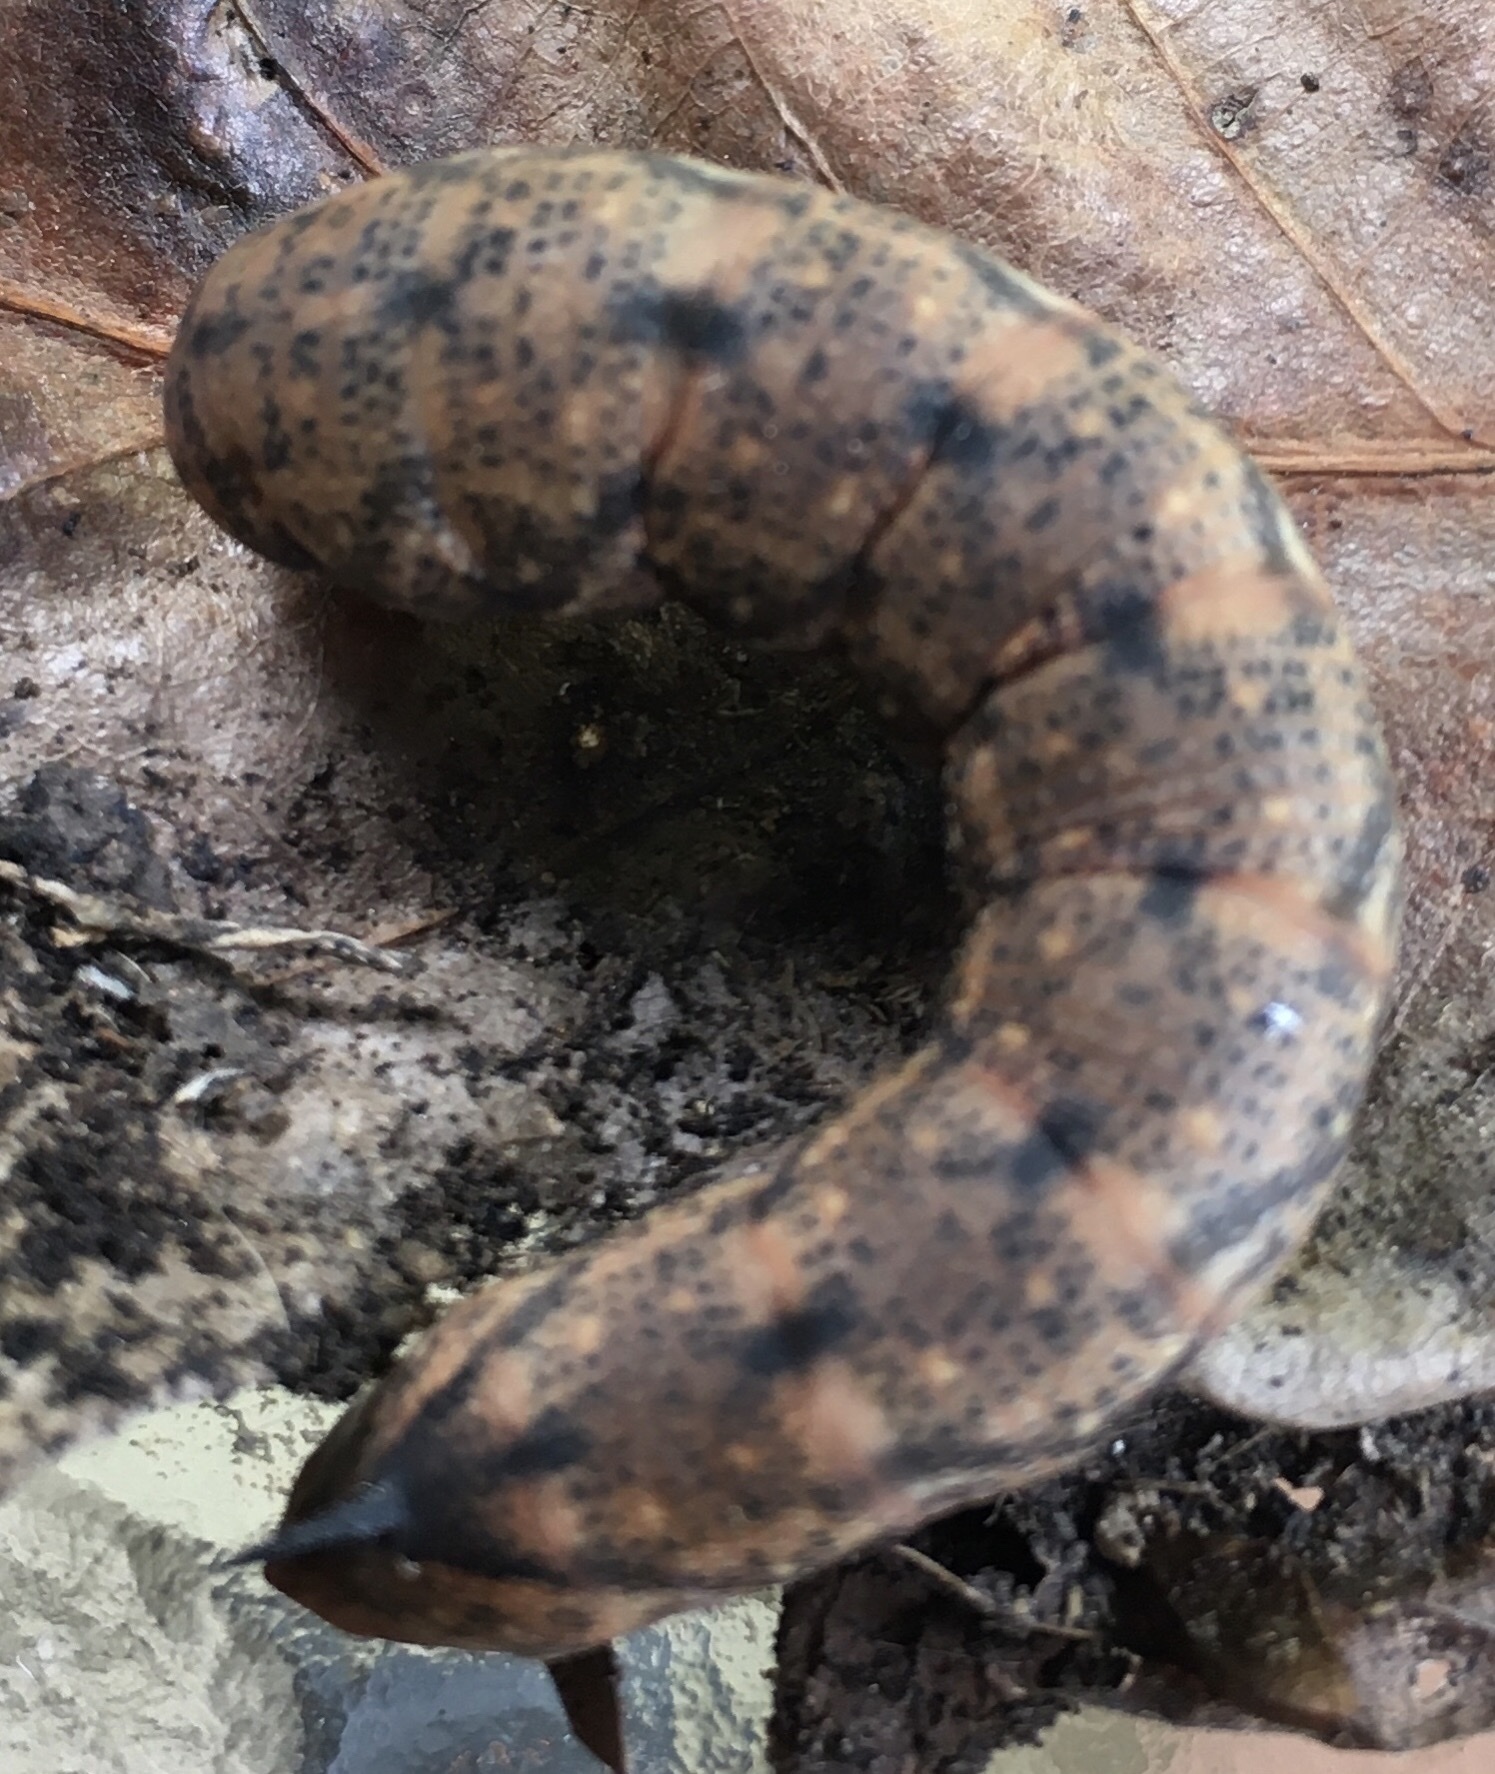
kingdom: Animalia
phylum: Arthropoda
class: Insecta
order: Lepidoptera
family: Sphingidae
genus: Amphion
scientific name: Amphion floridensis
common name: Nessus sphinx
